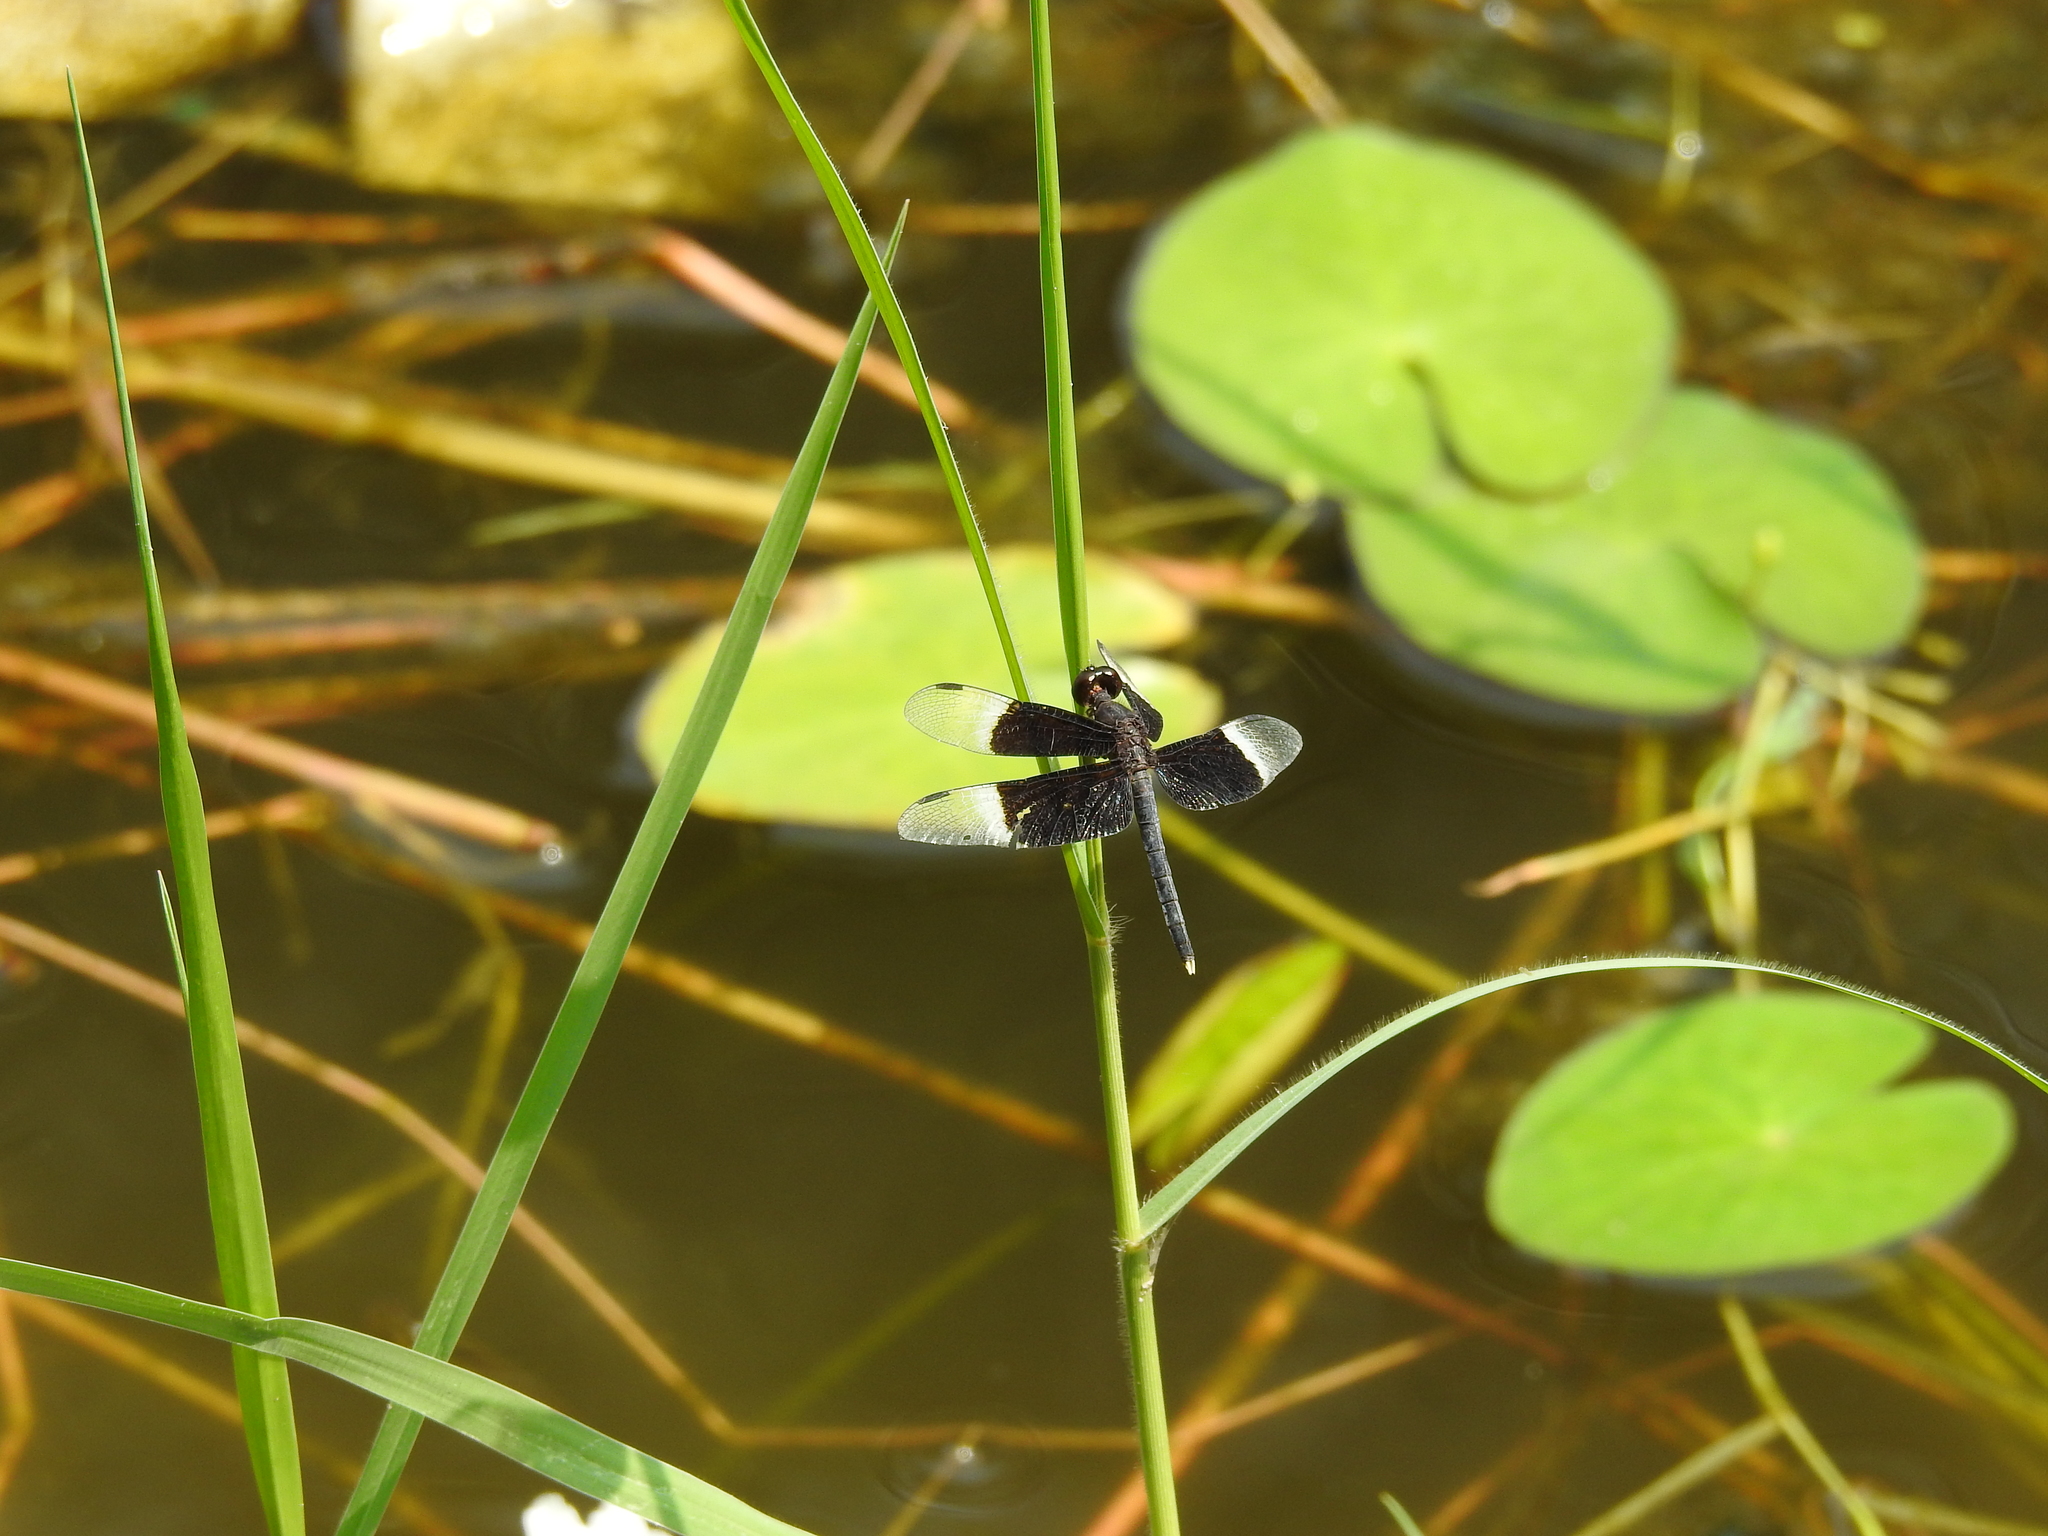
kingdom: Animalia
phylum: Arthropoda
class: Insecta
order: Odonata
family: Libellulidae
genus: Neurothemis
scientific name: Neurothemis tullia
